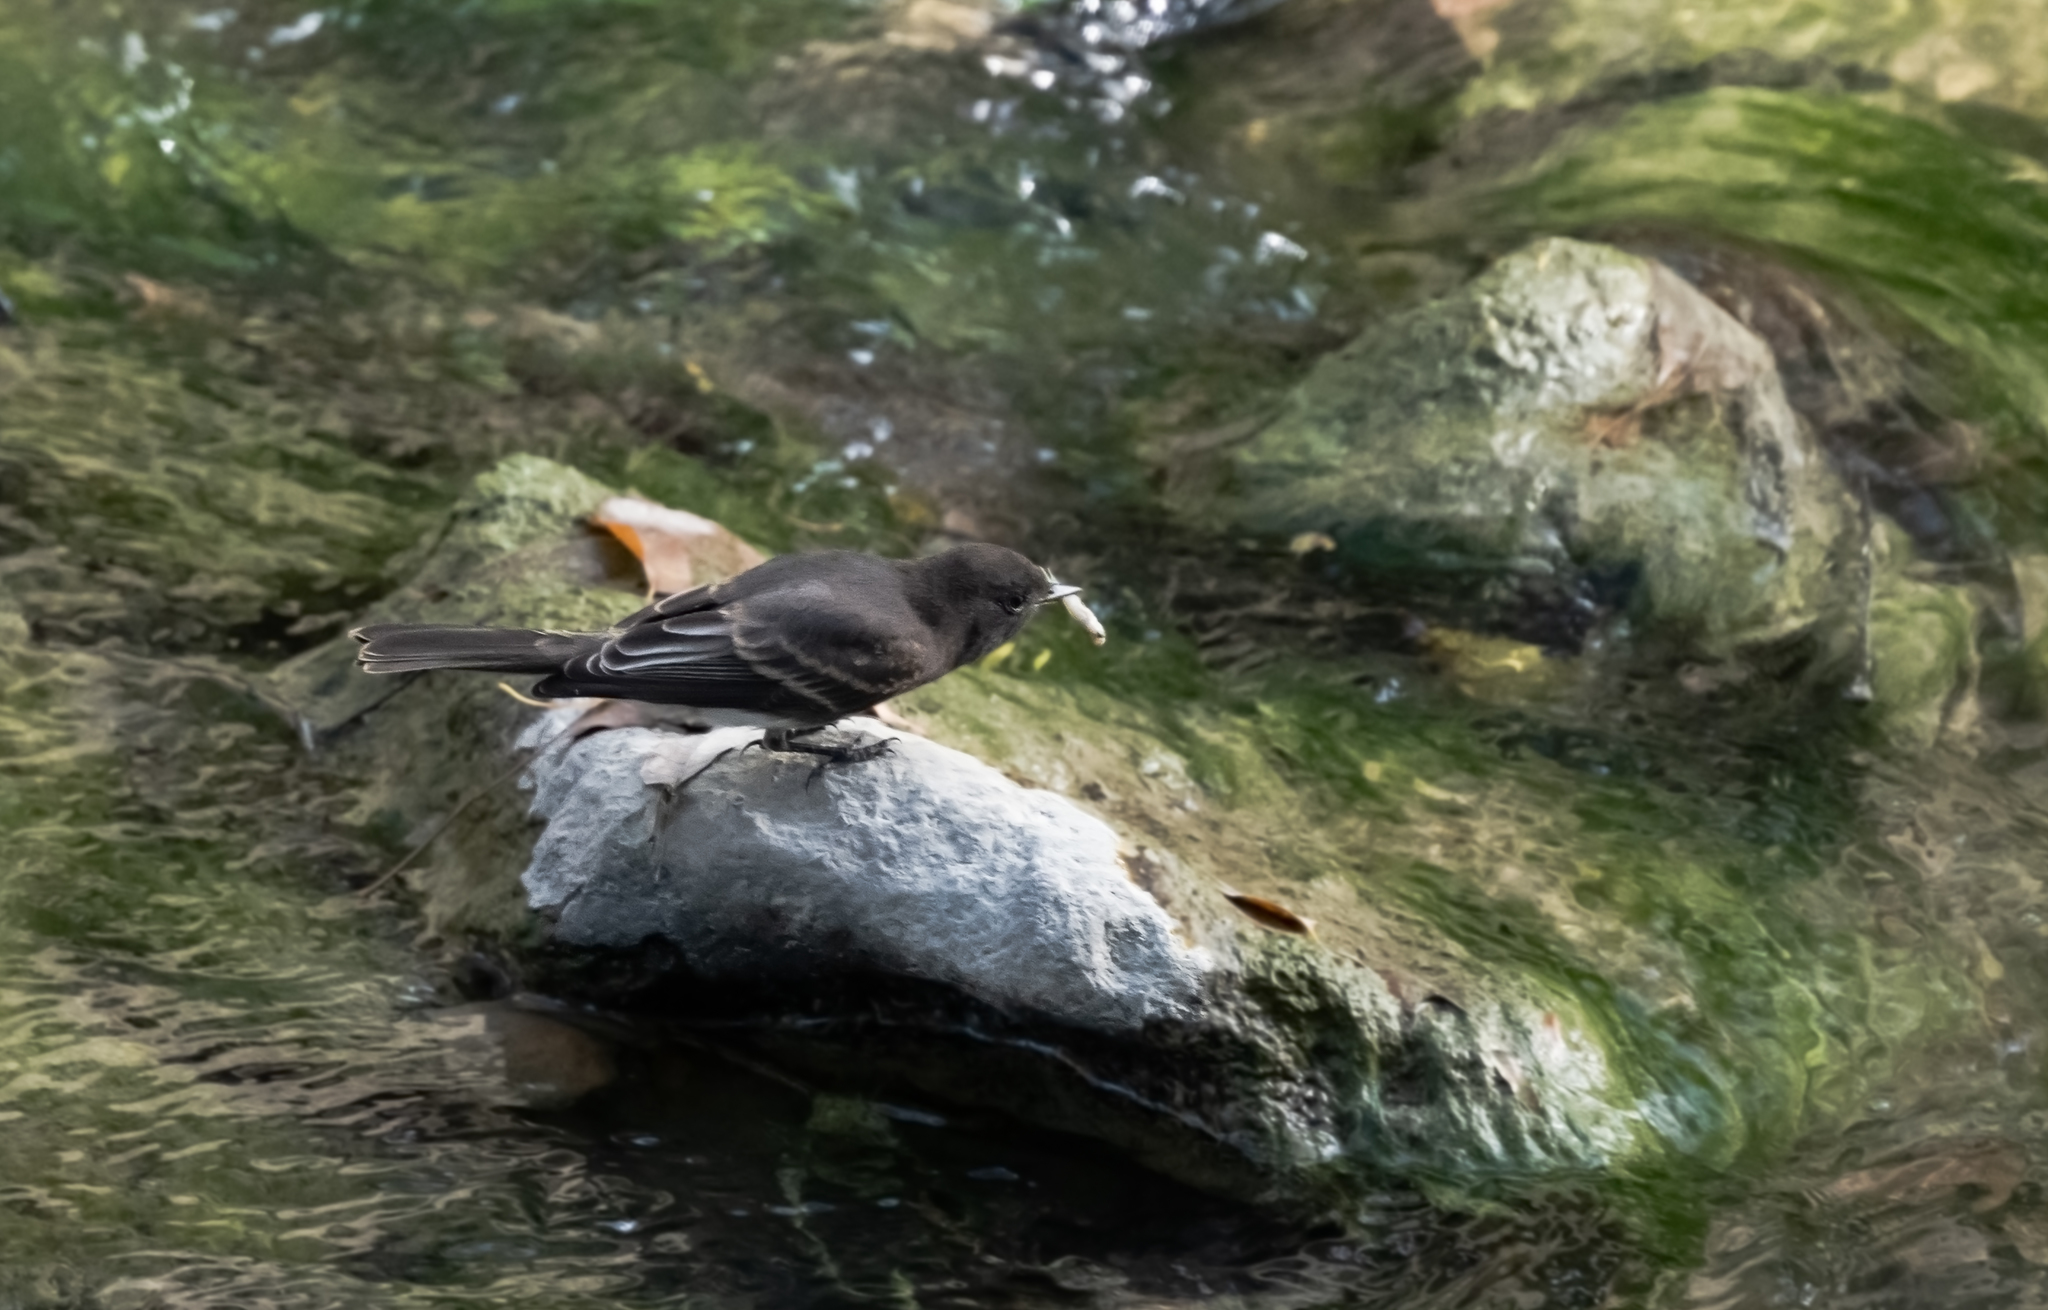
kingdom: Animalia
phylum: Chordata
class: Aves
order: Passeriformes
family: Tyrannidae
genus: Sayornis
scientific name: Sayornis nigricans
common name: Black phoebe
